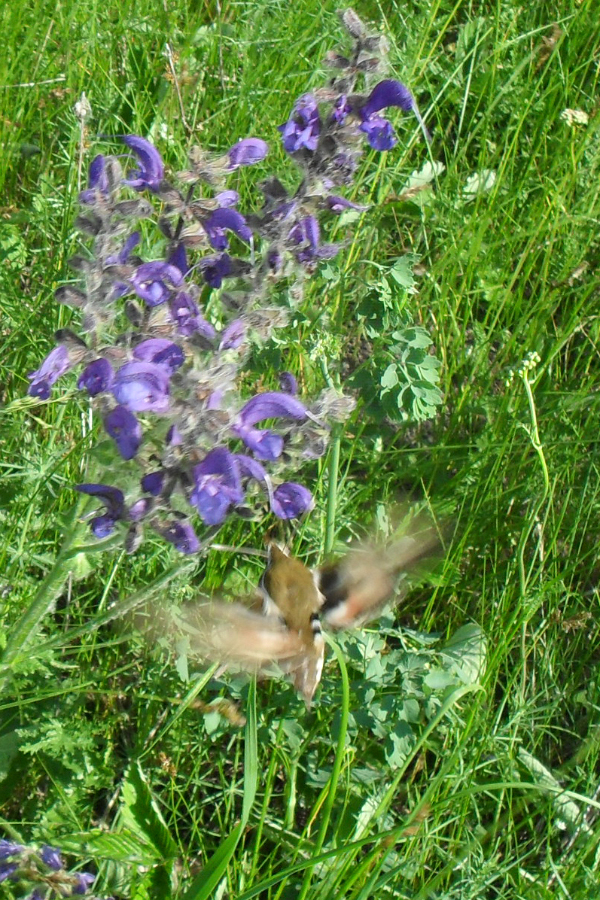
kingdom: Animalia
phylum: Arthropoda
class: Insecta
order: Lepidoptera
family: Sphingidae
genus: Hyles
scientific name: Hyles gallii
